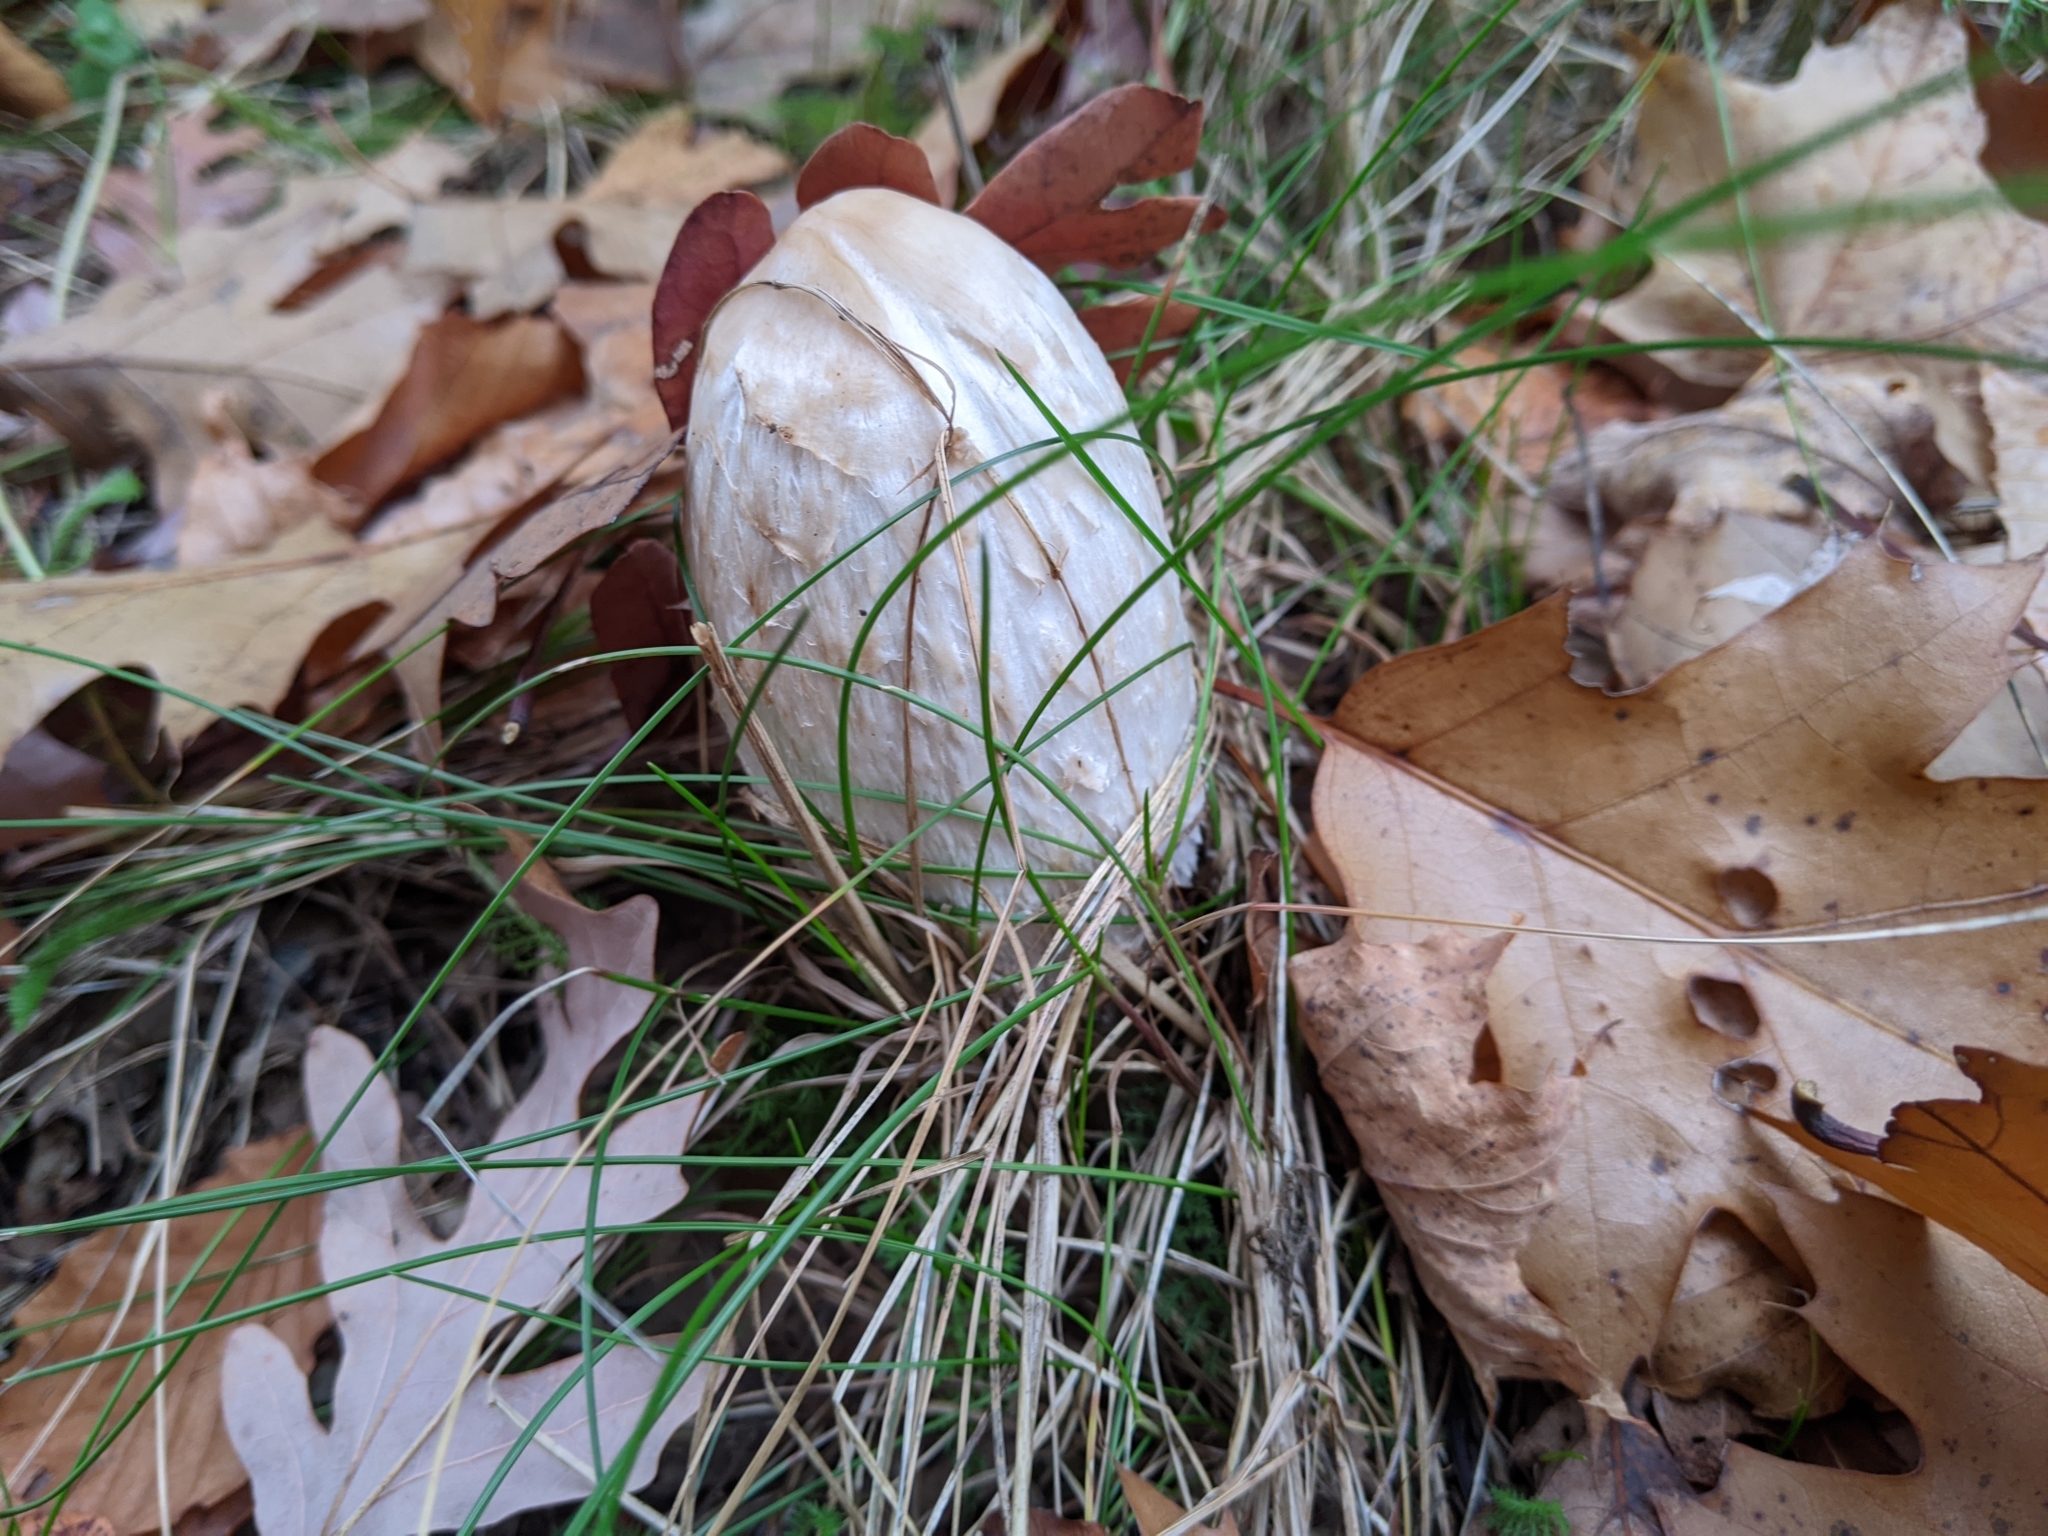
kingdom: Fungi
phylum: Basidiomycota
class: Agaricomycetes
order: Agaricales
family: Agaricaceae
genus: Coprinus
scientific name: Coprinus comatus
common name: Lawyer's wig
